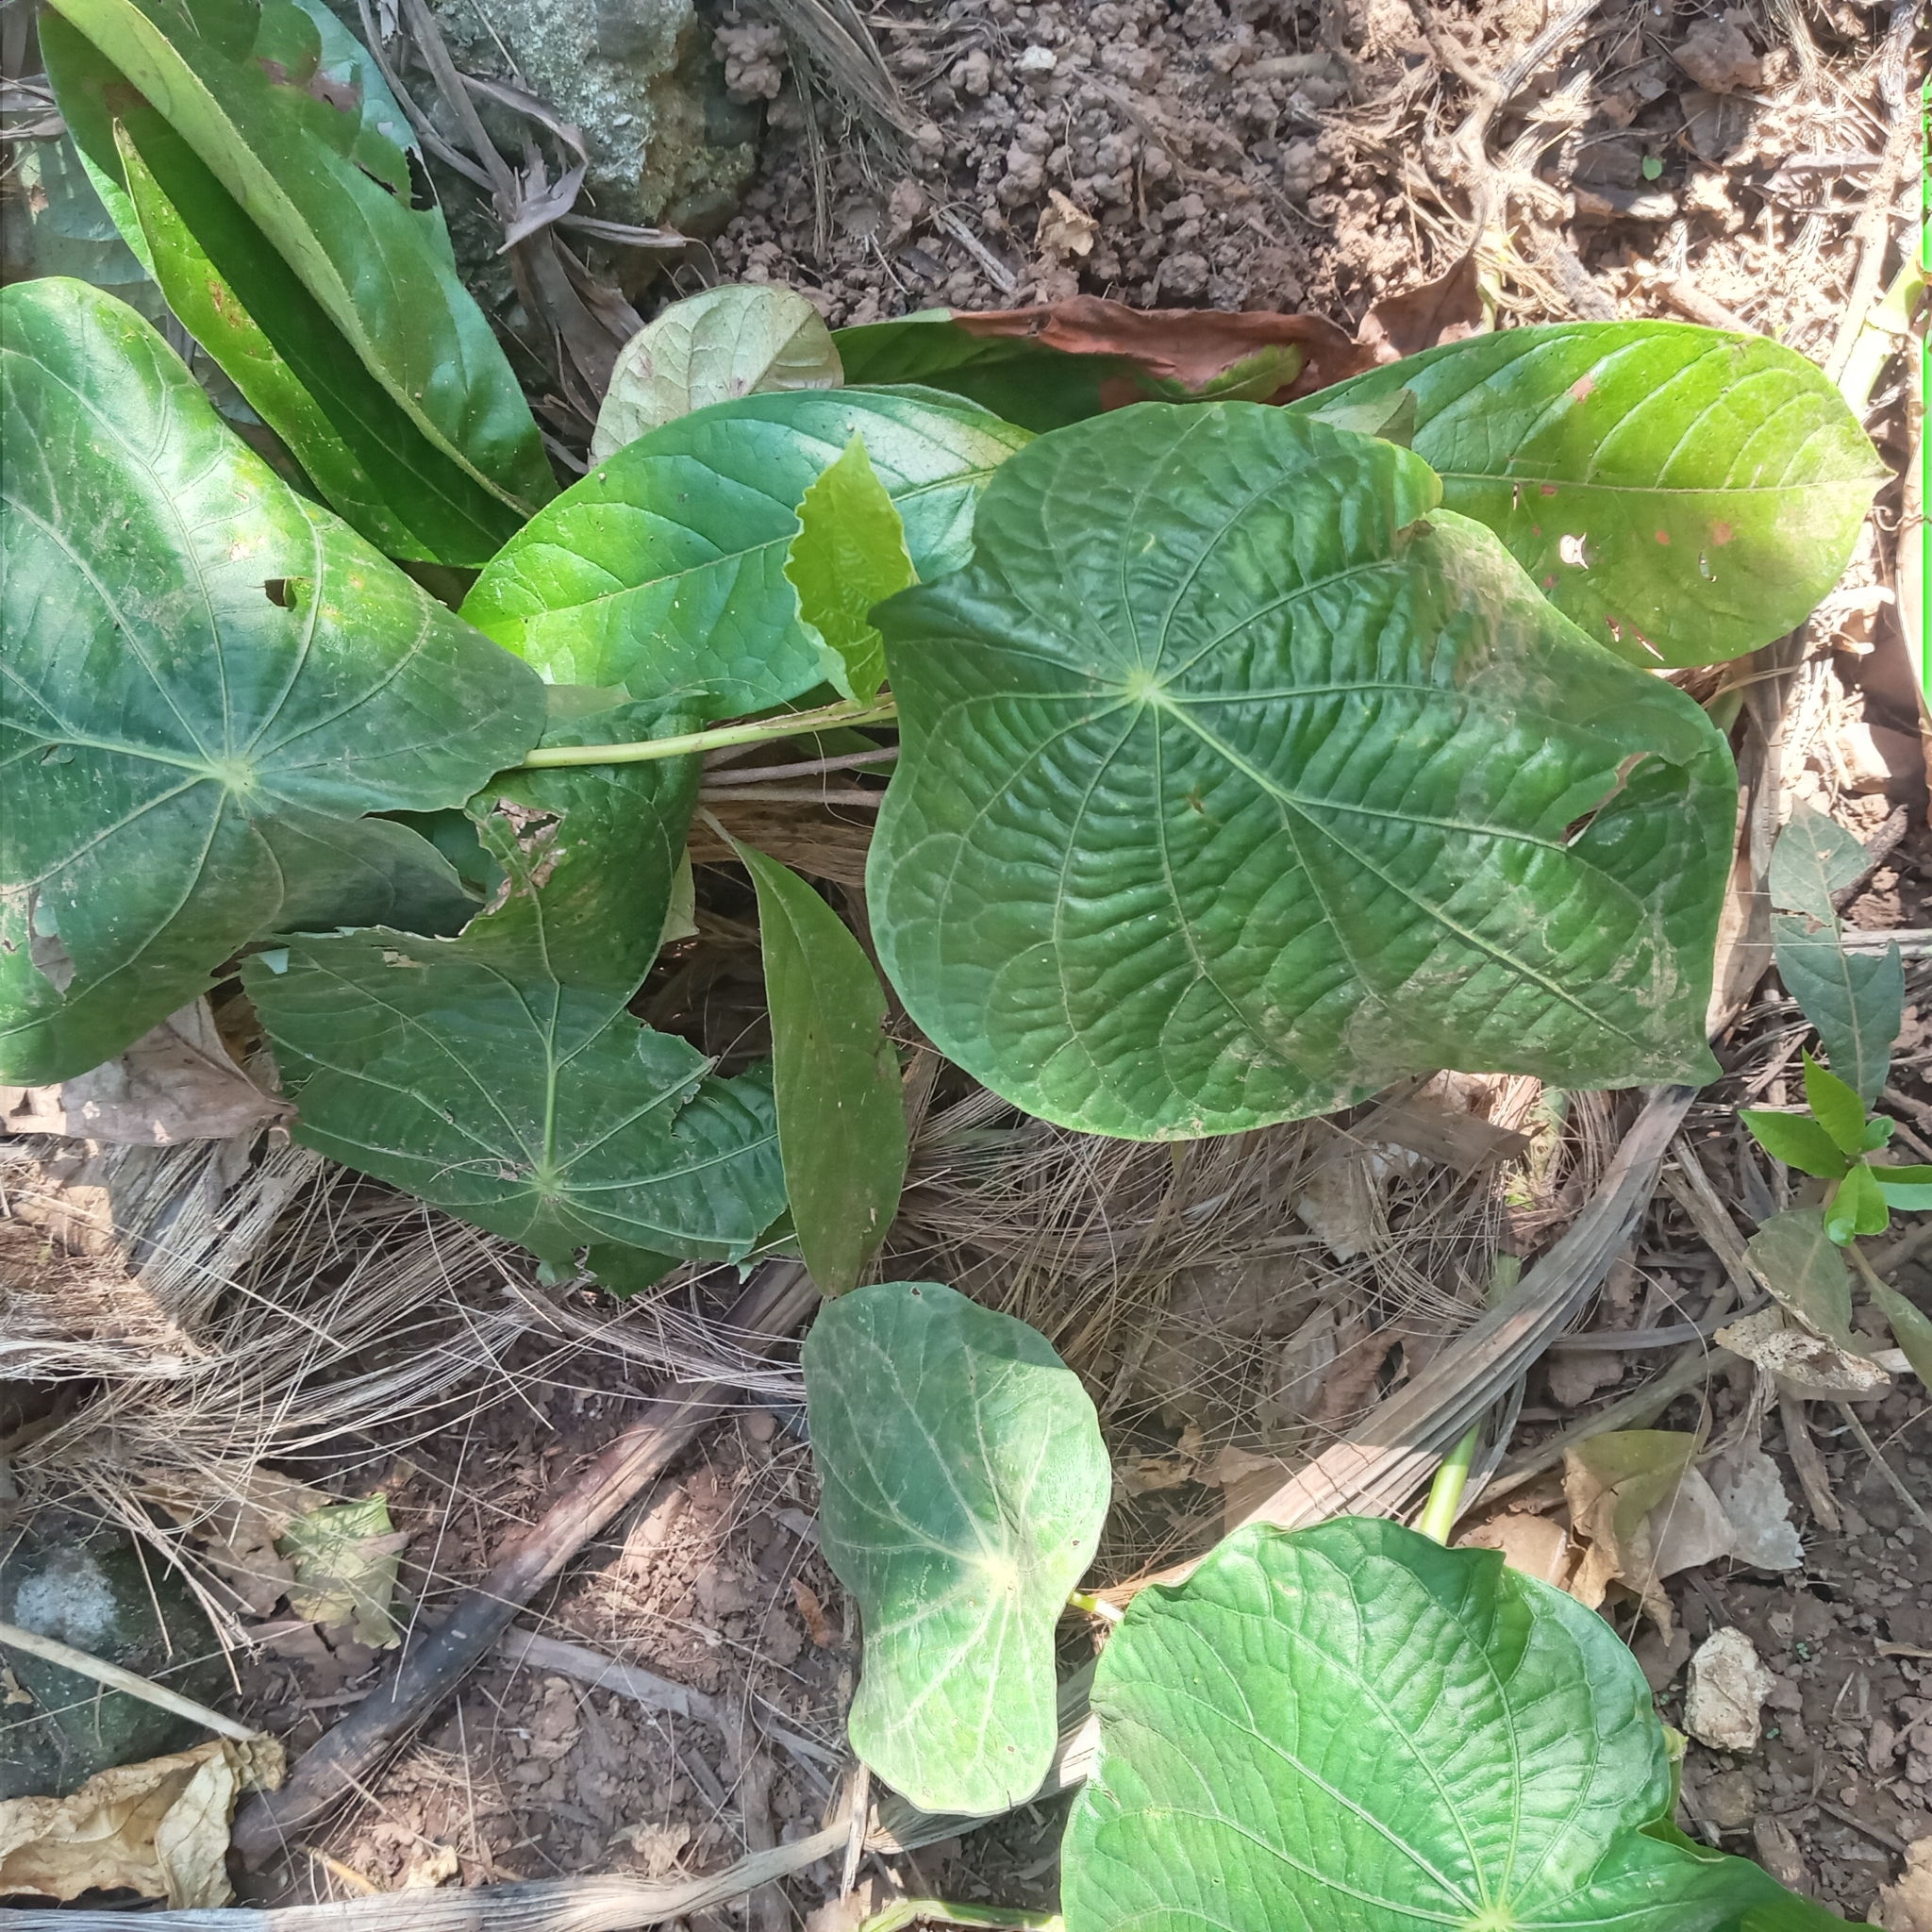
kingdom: Plantae
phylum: Tracheophyta
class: Magnoliopsida
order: Piperales
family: Piperaceae
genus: Piper
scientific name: Piper peltatum
